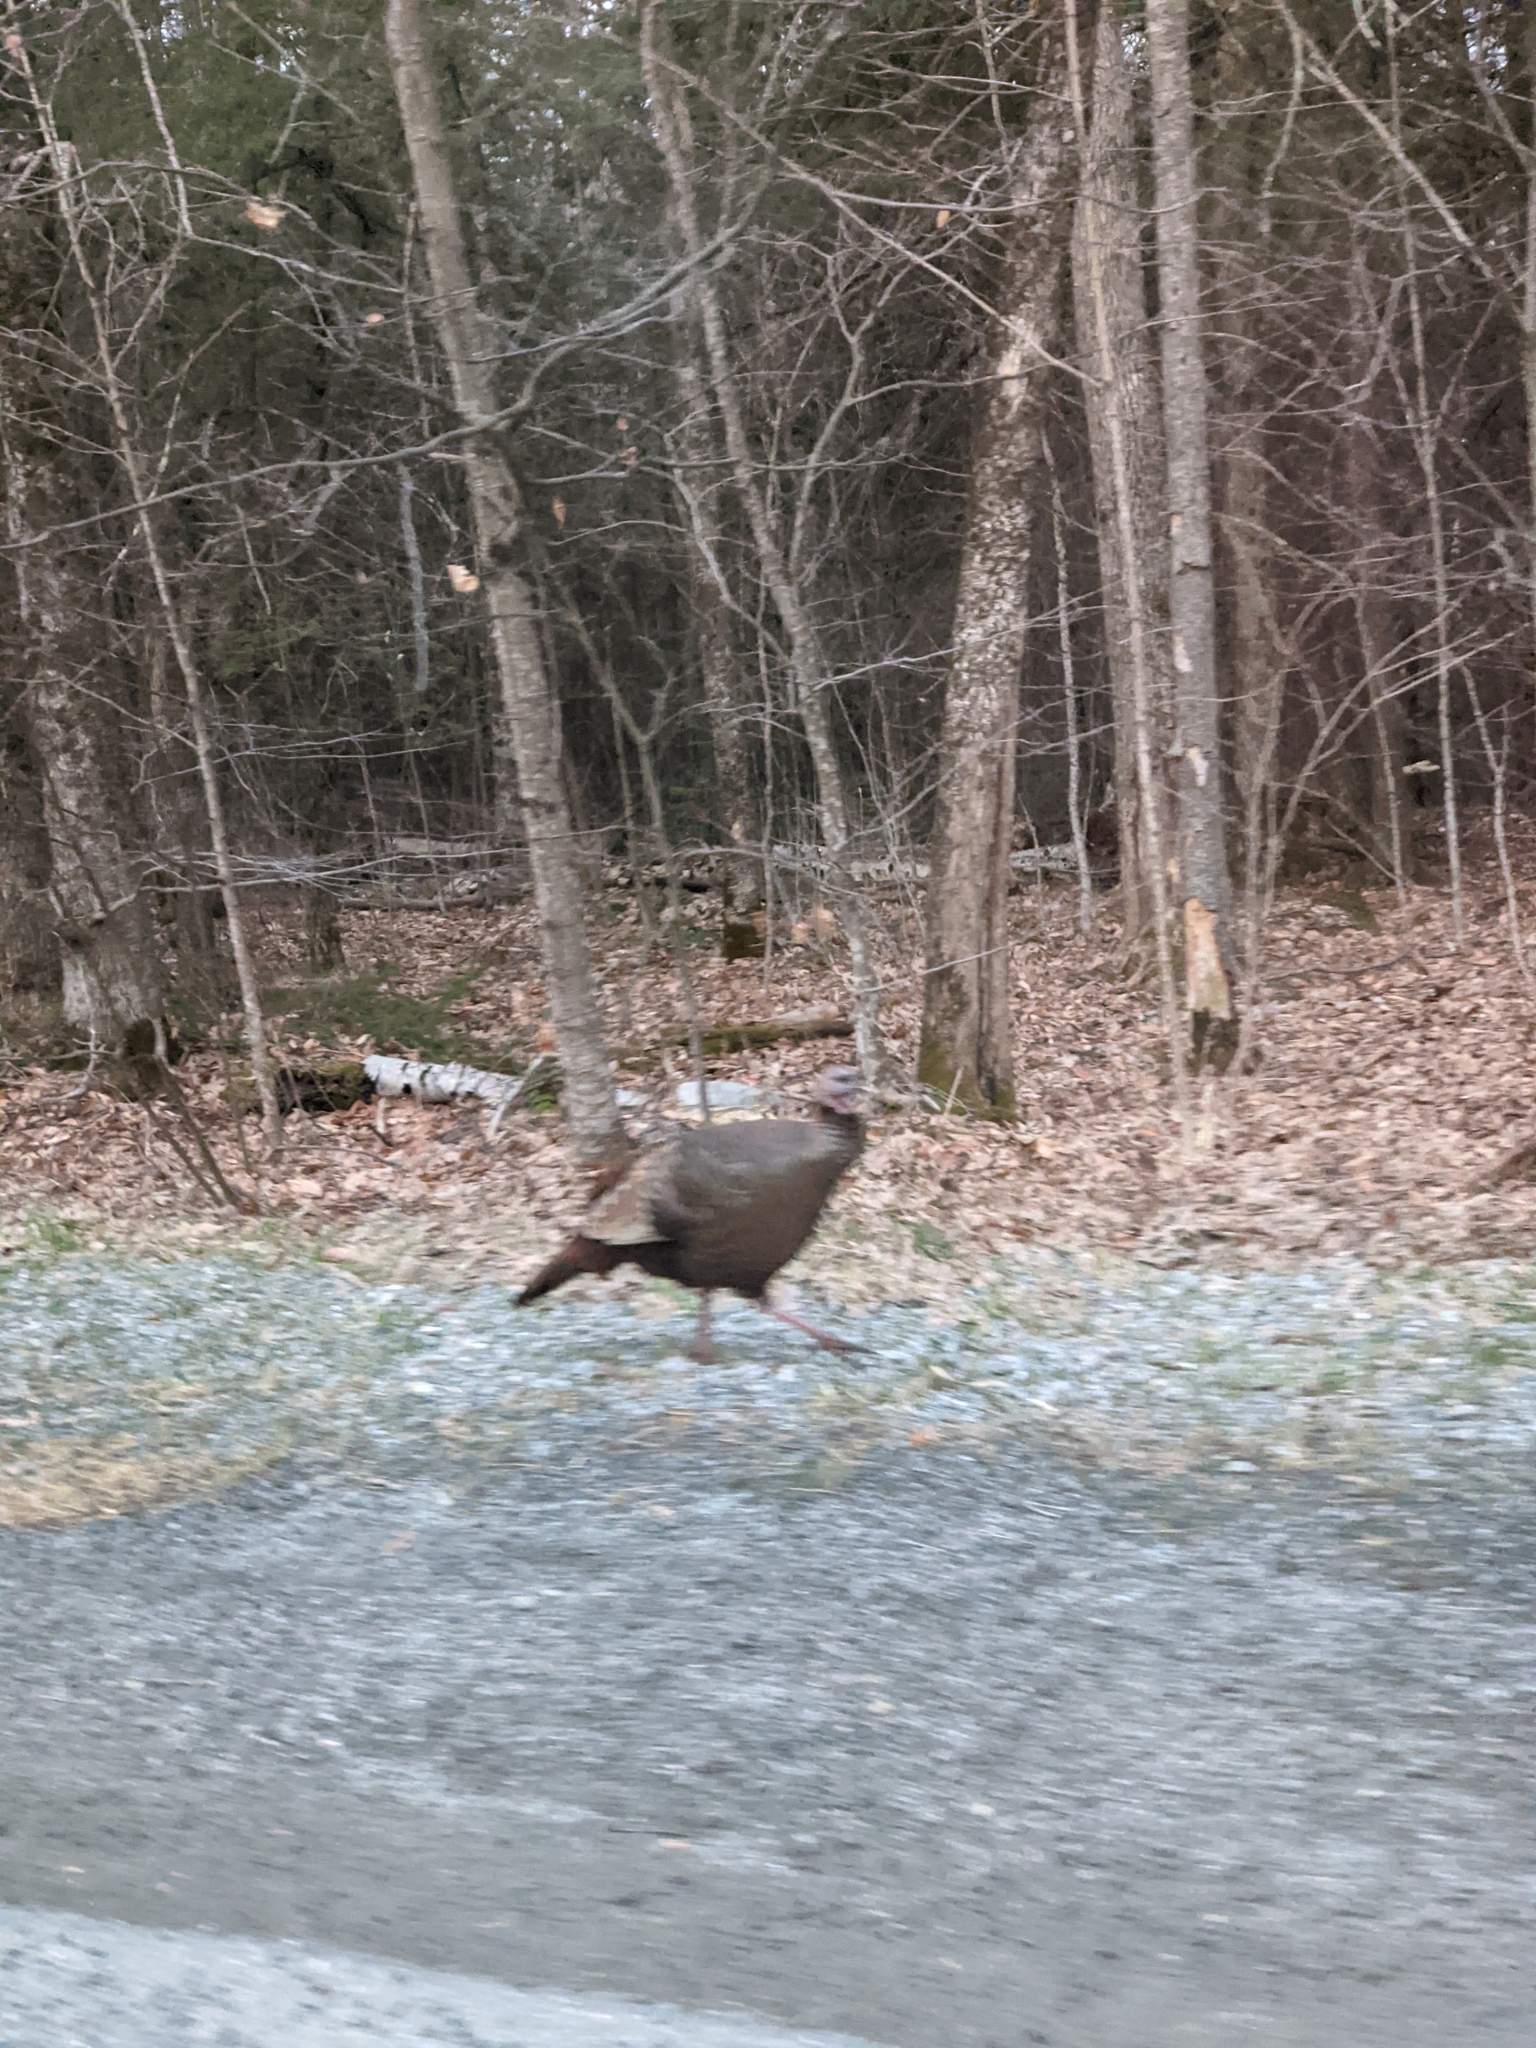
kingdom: Animalia
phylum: Chordata
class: Aves
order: Galliformes
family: Phasianidae
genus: Meleagris
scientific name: Meleagris gallopavo
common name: Wild turkey
